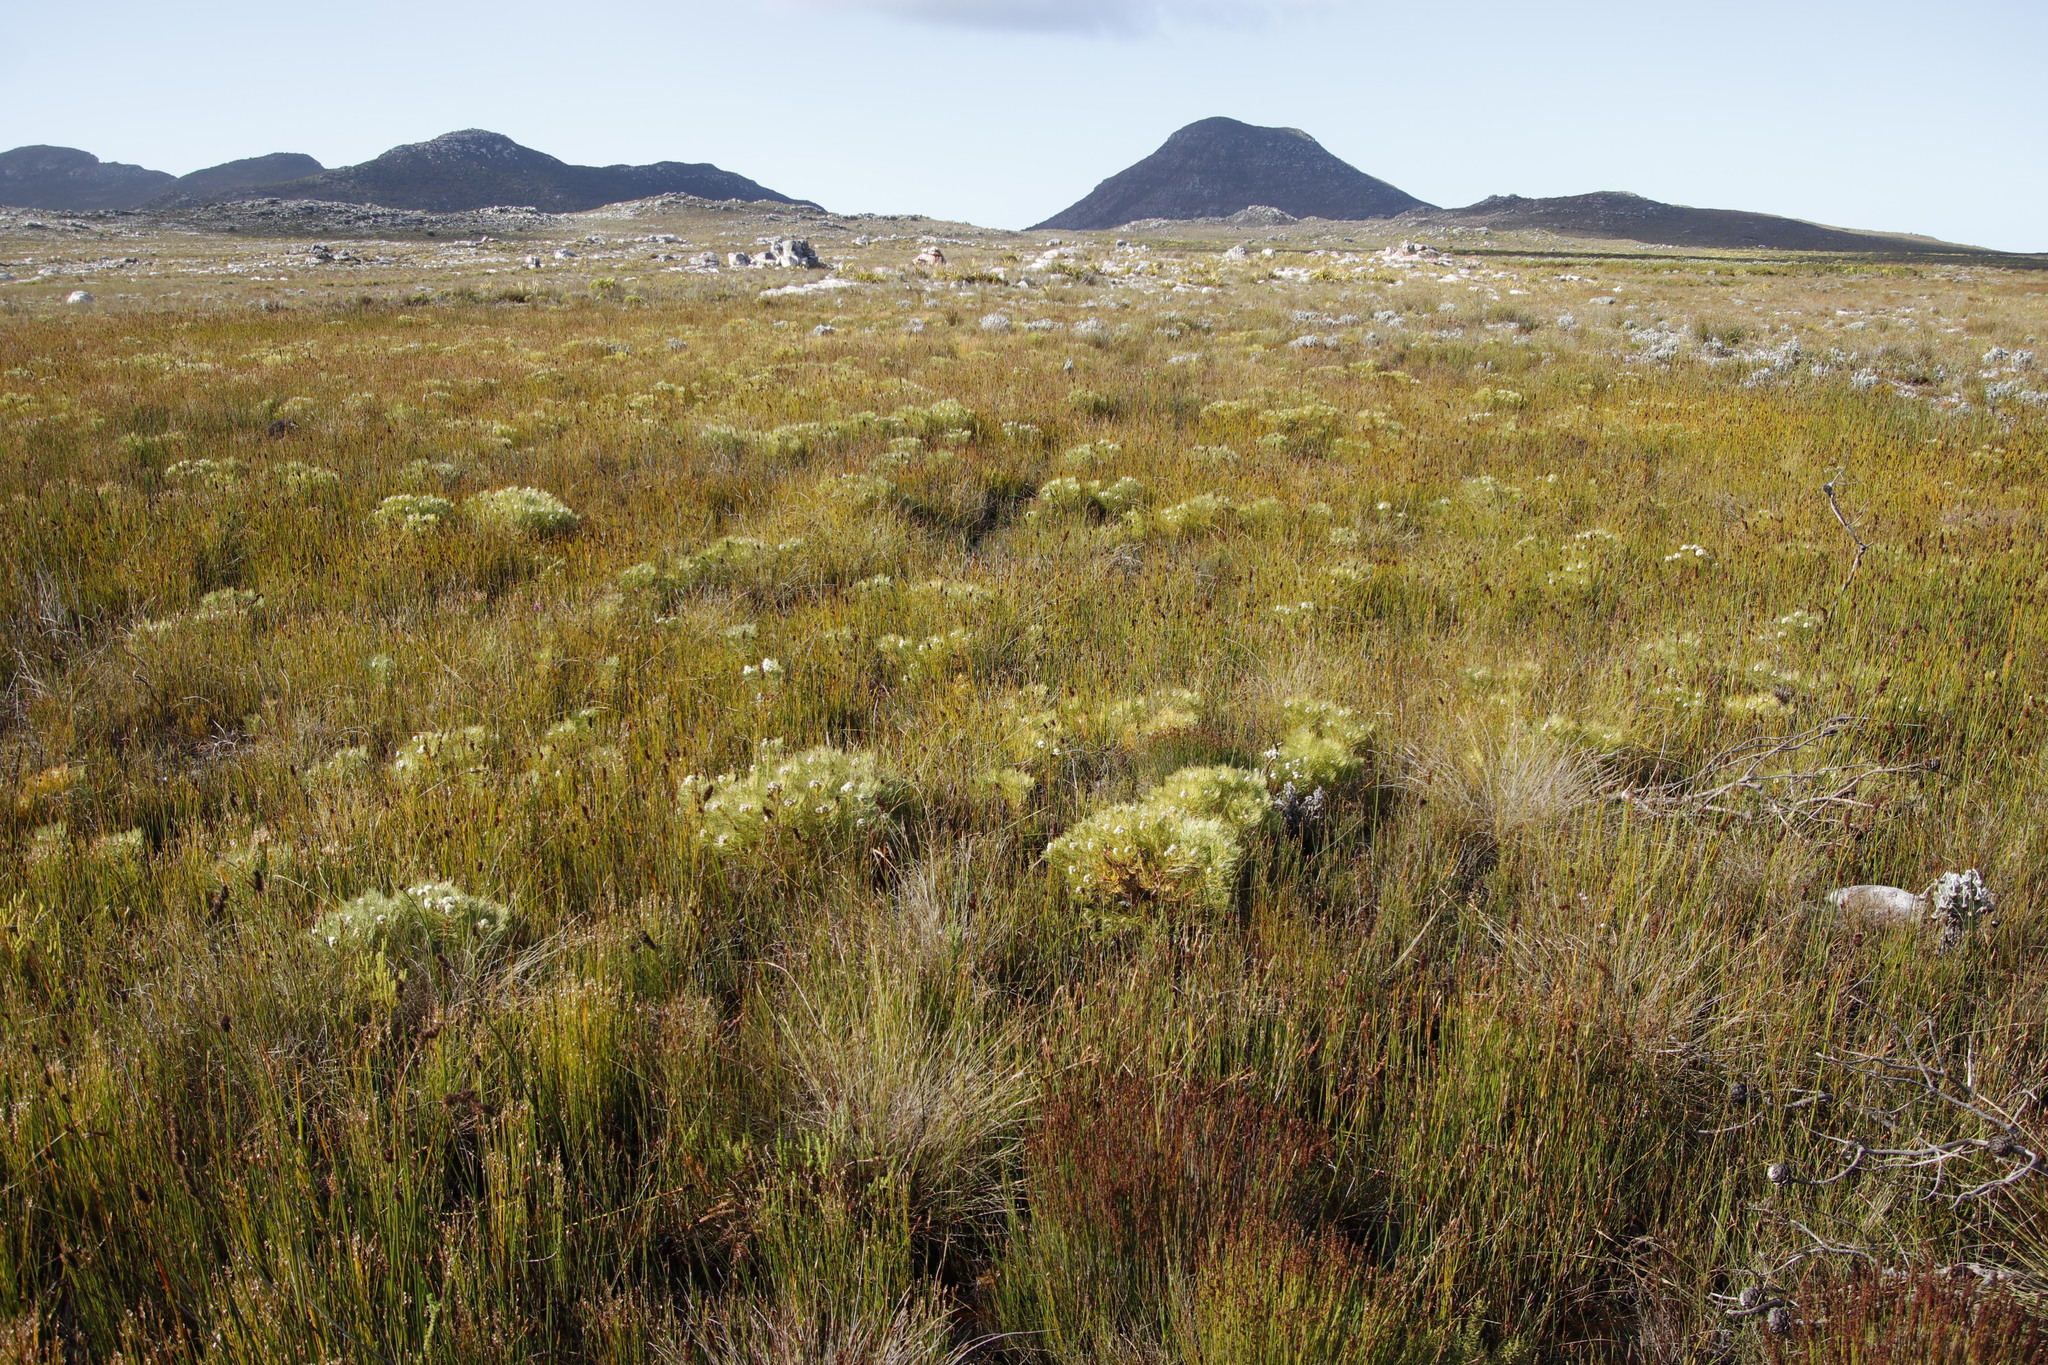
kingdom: Plantae
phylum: Tracheophyta
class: Magnoliopsida
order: Proteales
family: Proteaceae
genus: Serruria
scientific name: Serruria glomerata
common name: Cluster spiderhead
